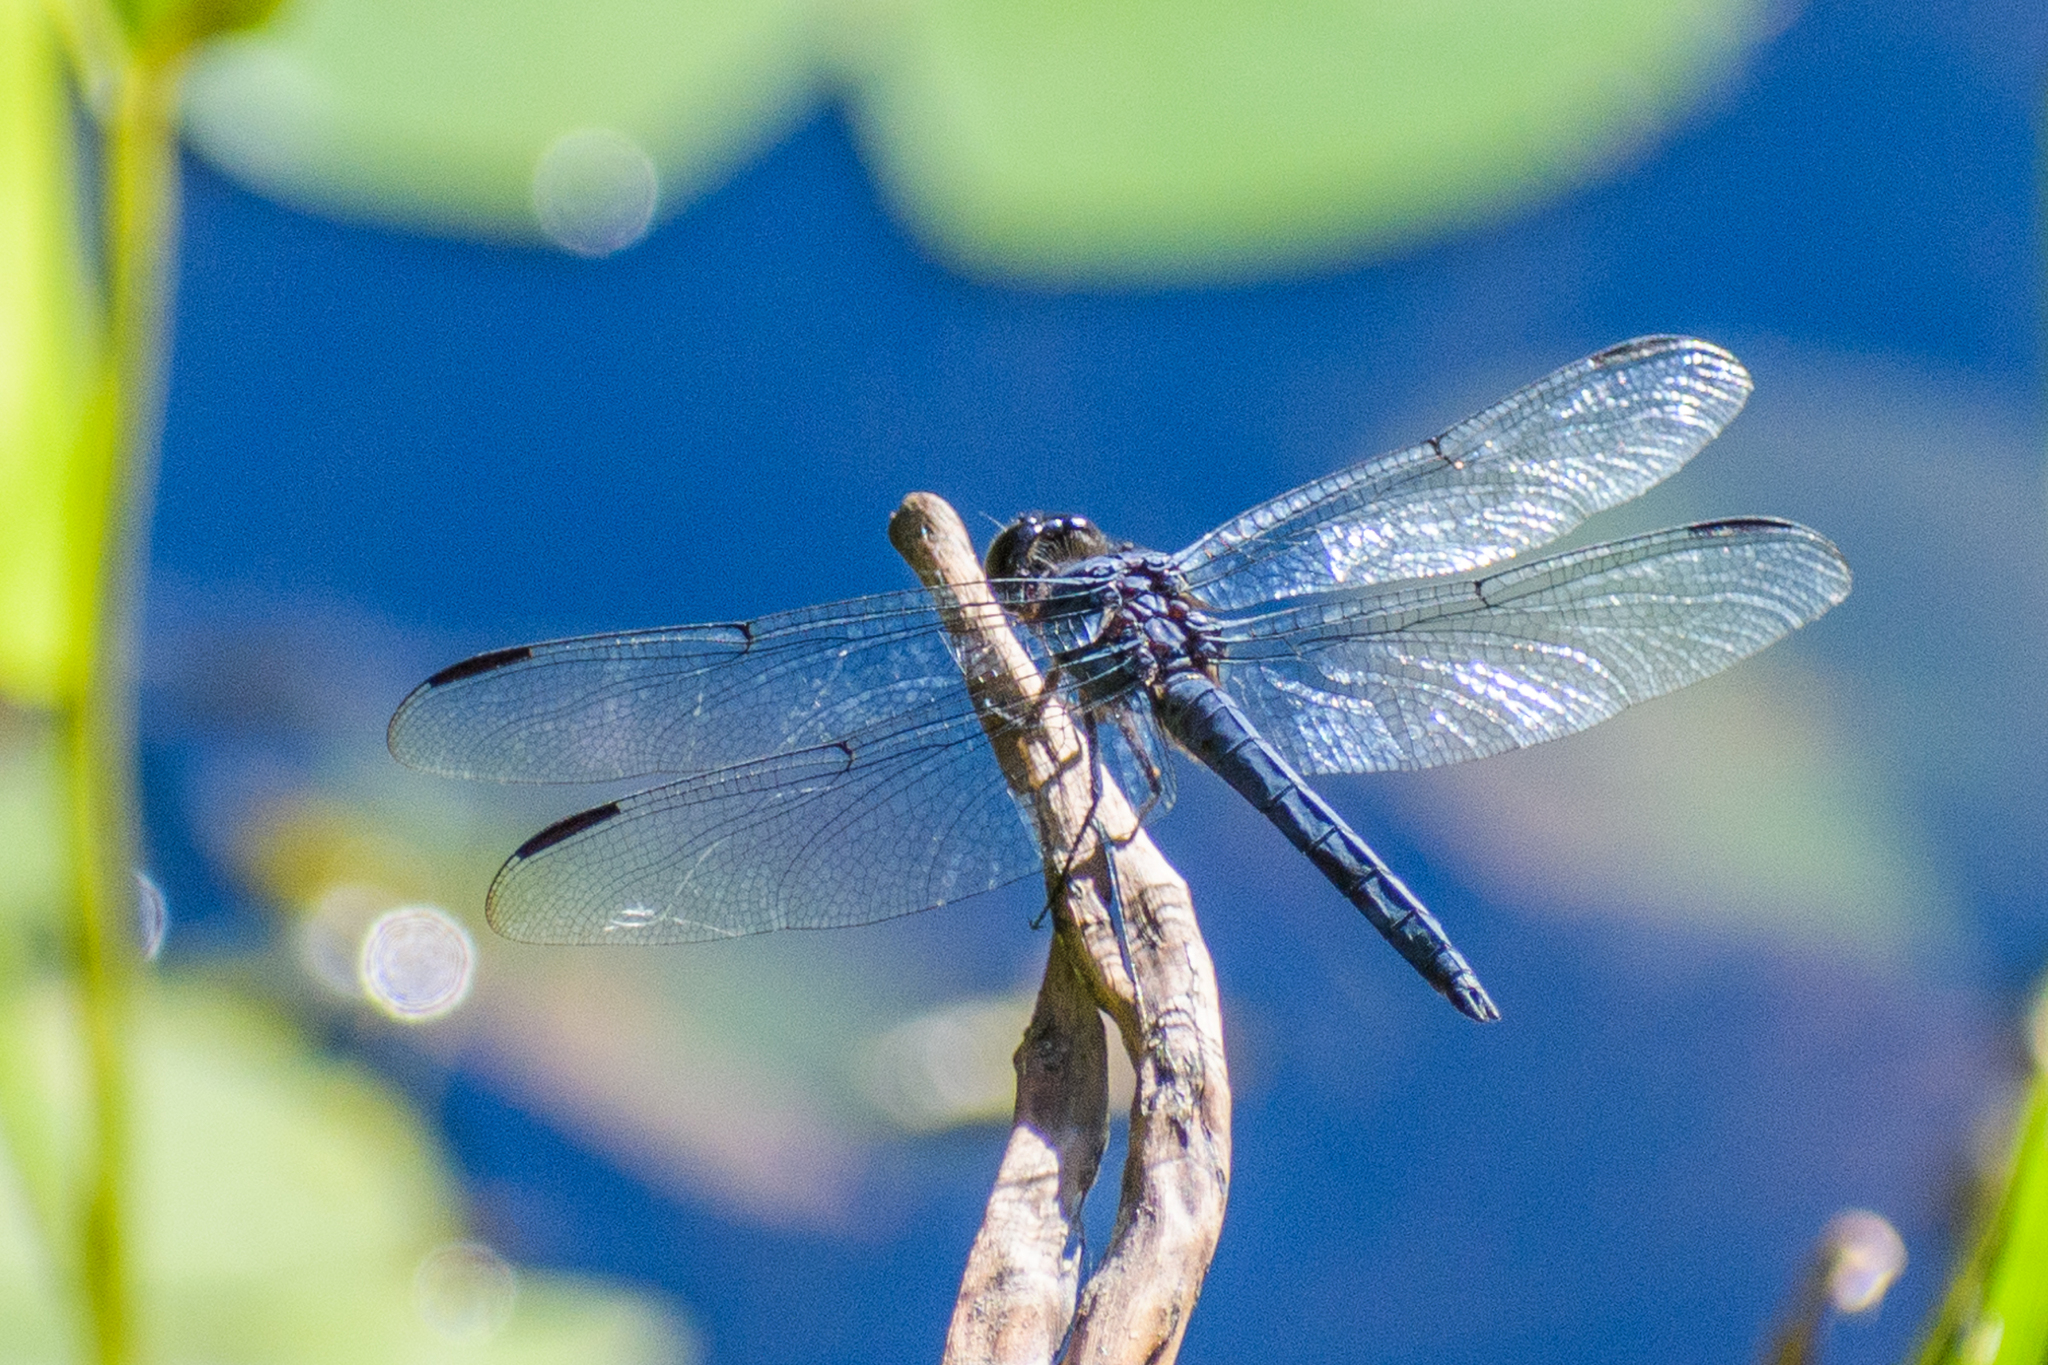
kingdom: Animalia
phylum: Arthropoda
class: Insecta
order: Odonata
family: Libellulidae
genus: Libellula
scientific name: Libellula incesta
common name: Slaty skimmer
